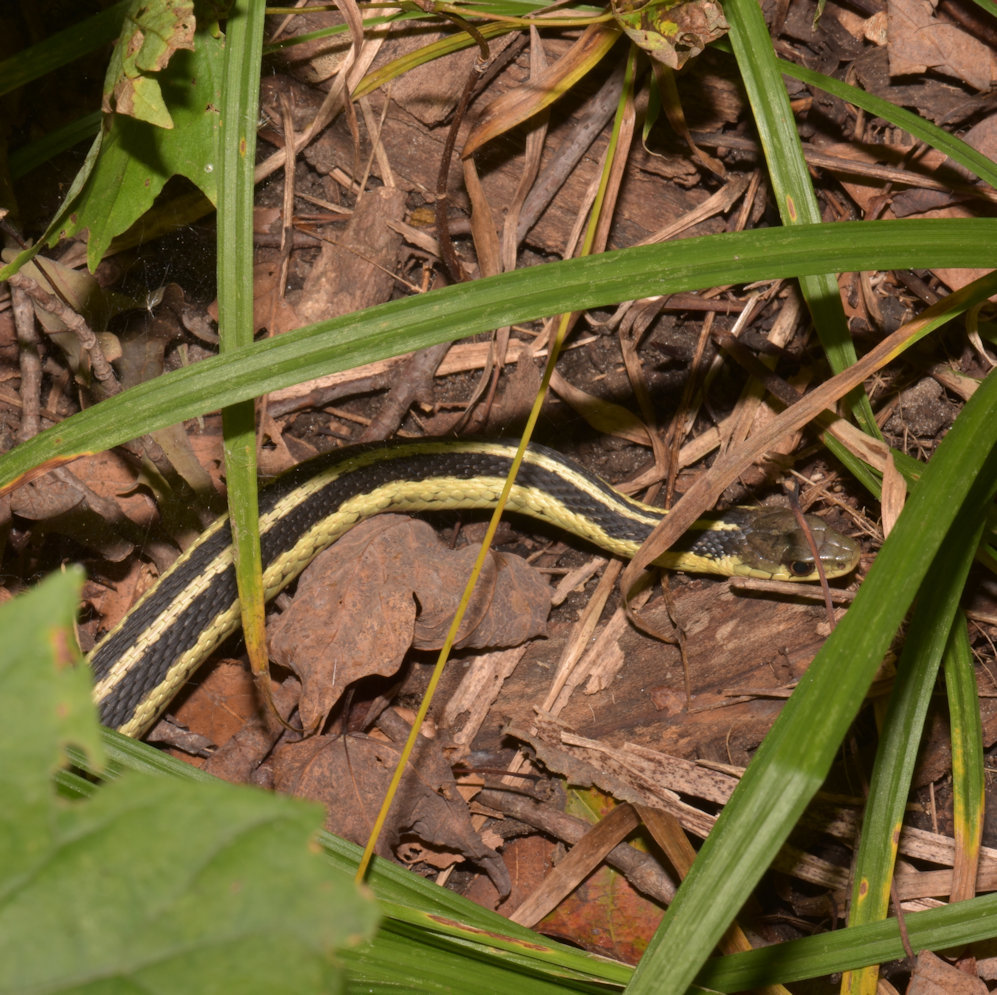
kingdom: Animalia
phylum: Chordata
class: Squamata
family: Colubridae
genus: Thamnophis
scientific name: Thamnophis sirtalis
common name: Common garter snake
